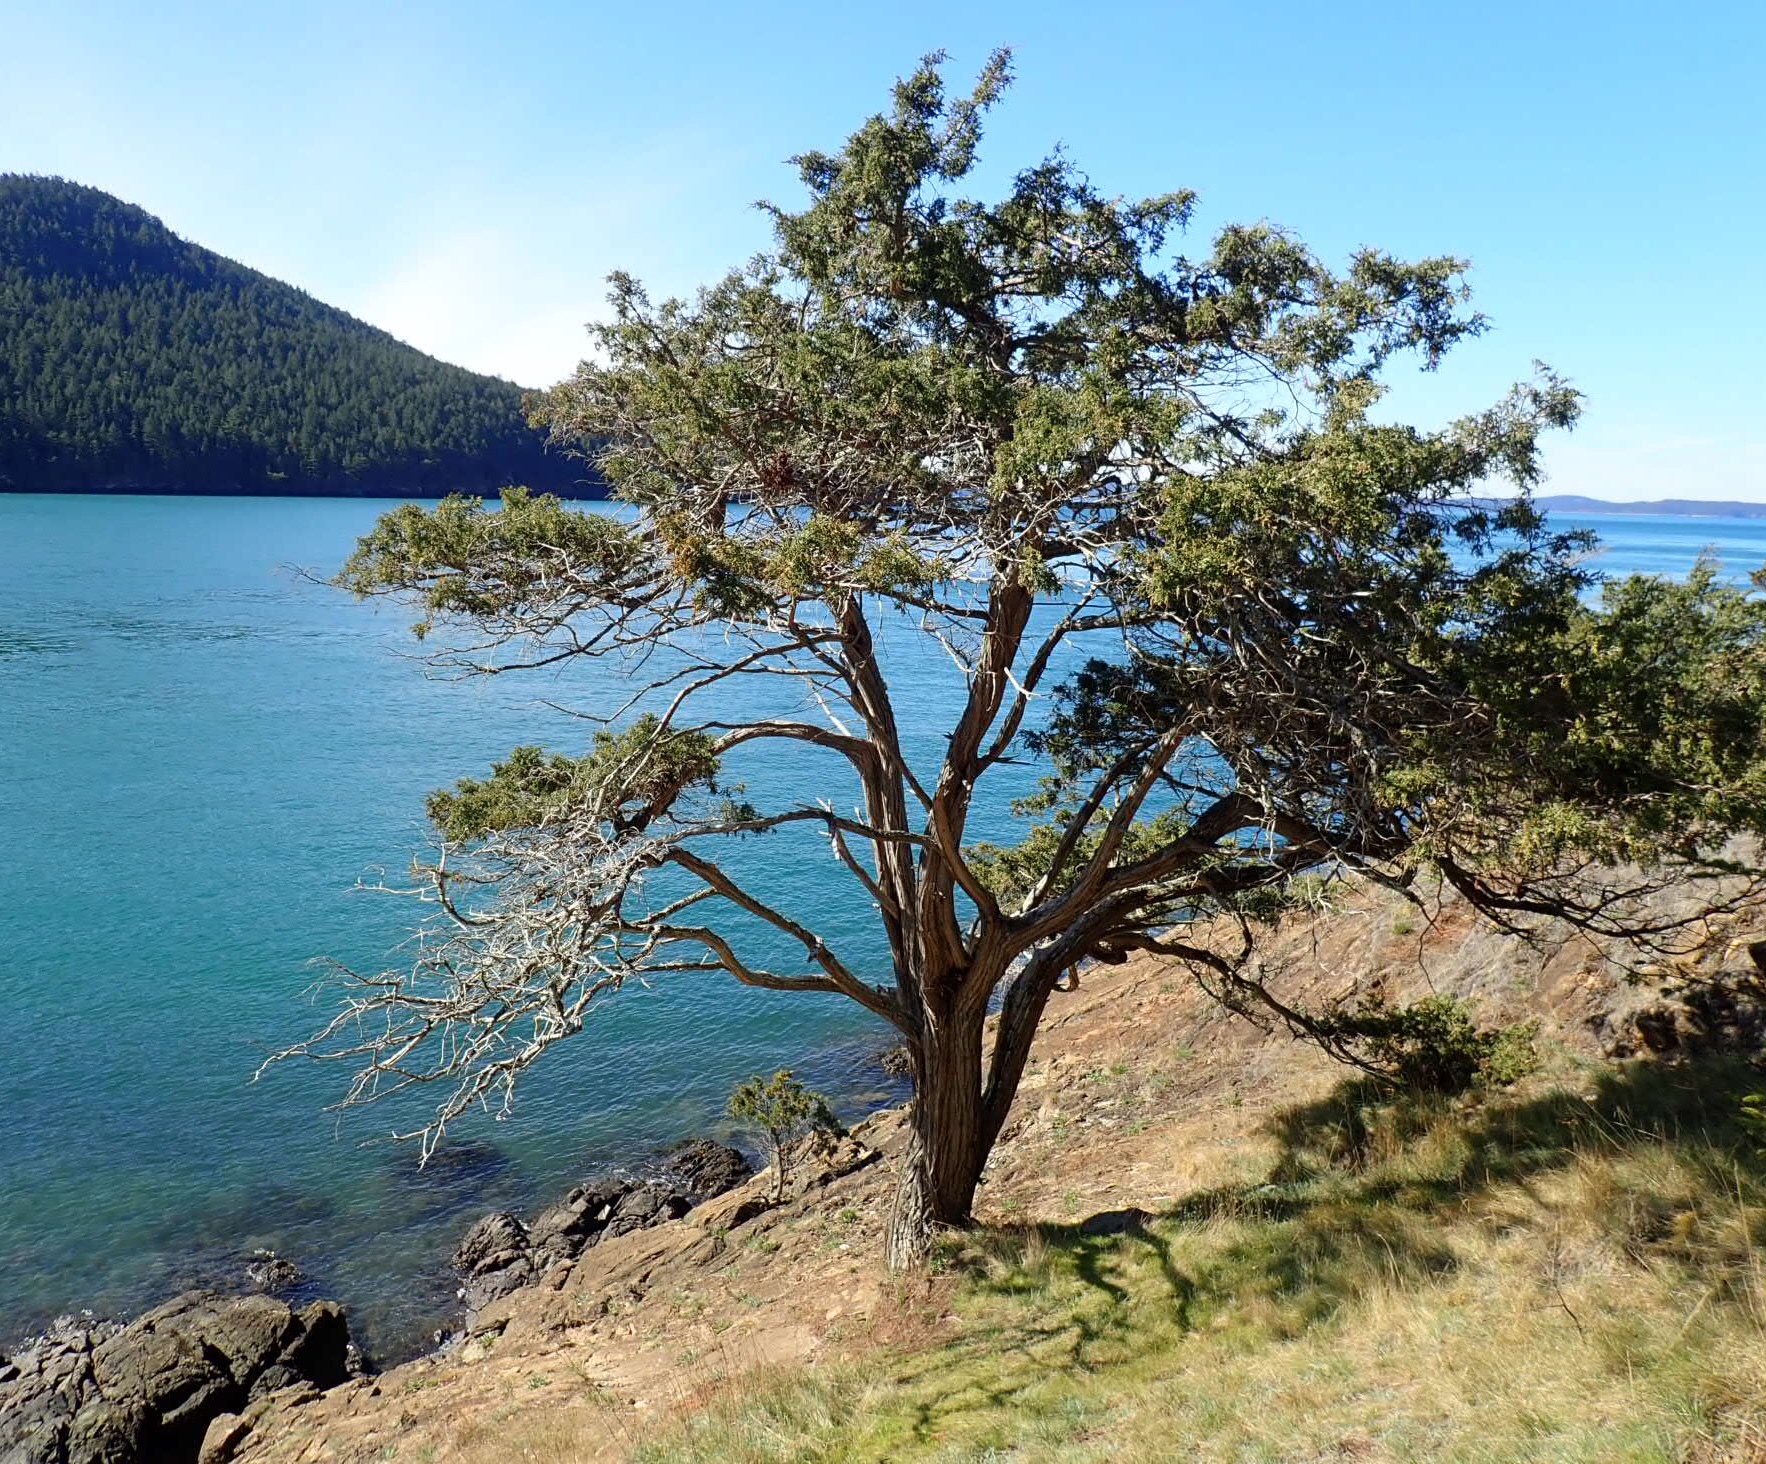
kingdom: Plantae
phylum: Tracheophyta
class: Pinopsida
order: Pinales
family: Cupressaceae
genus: Juniperus
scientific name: Juniperus scopulorum
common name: Rocky mountain juniper
